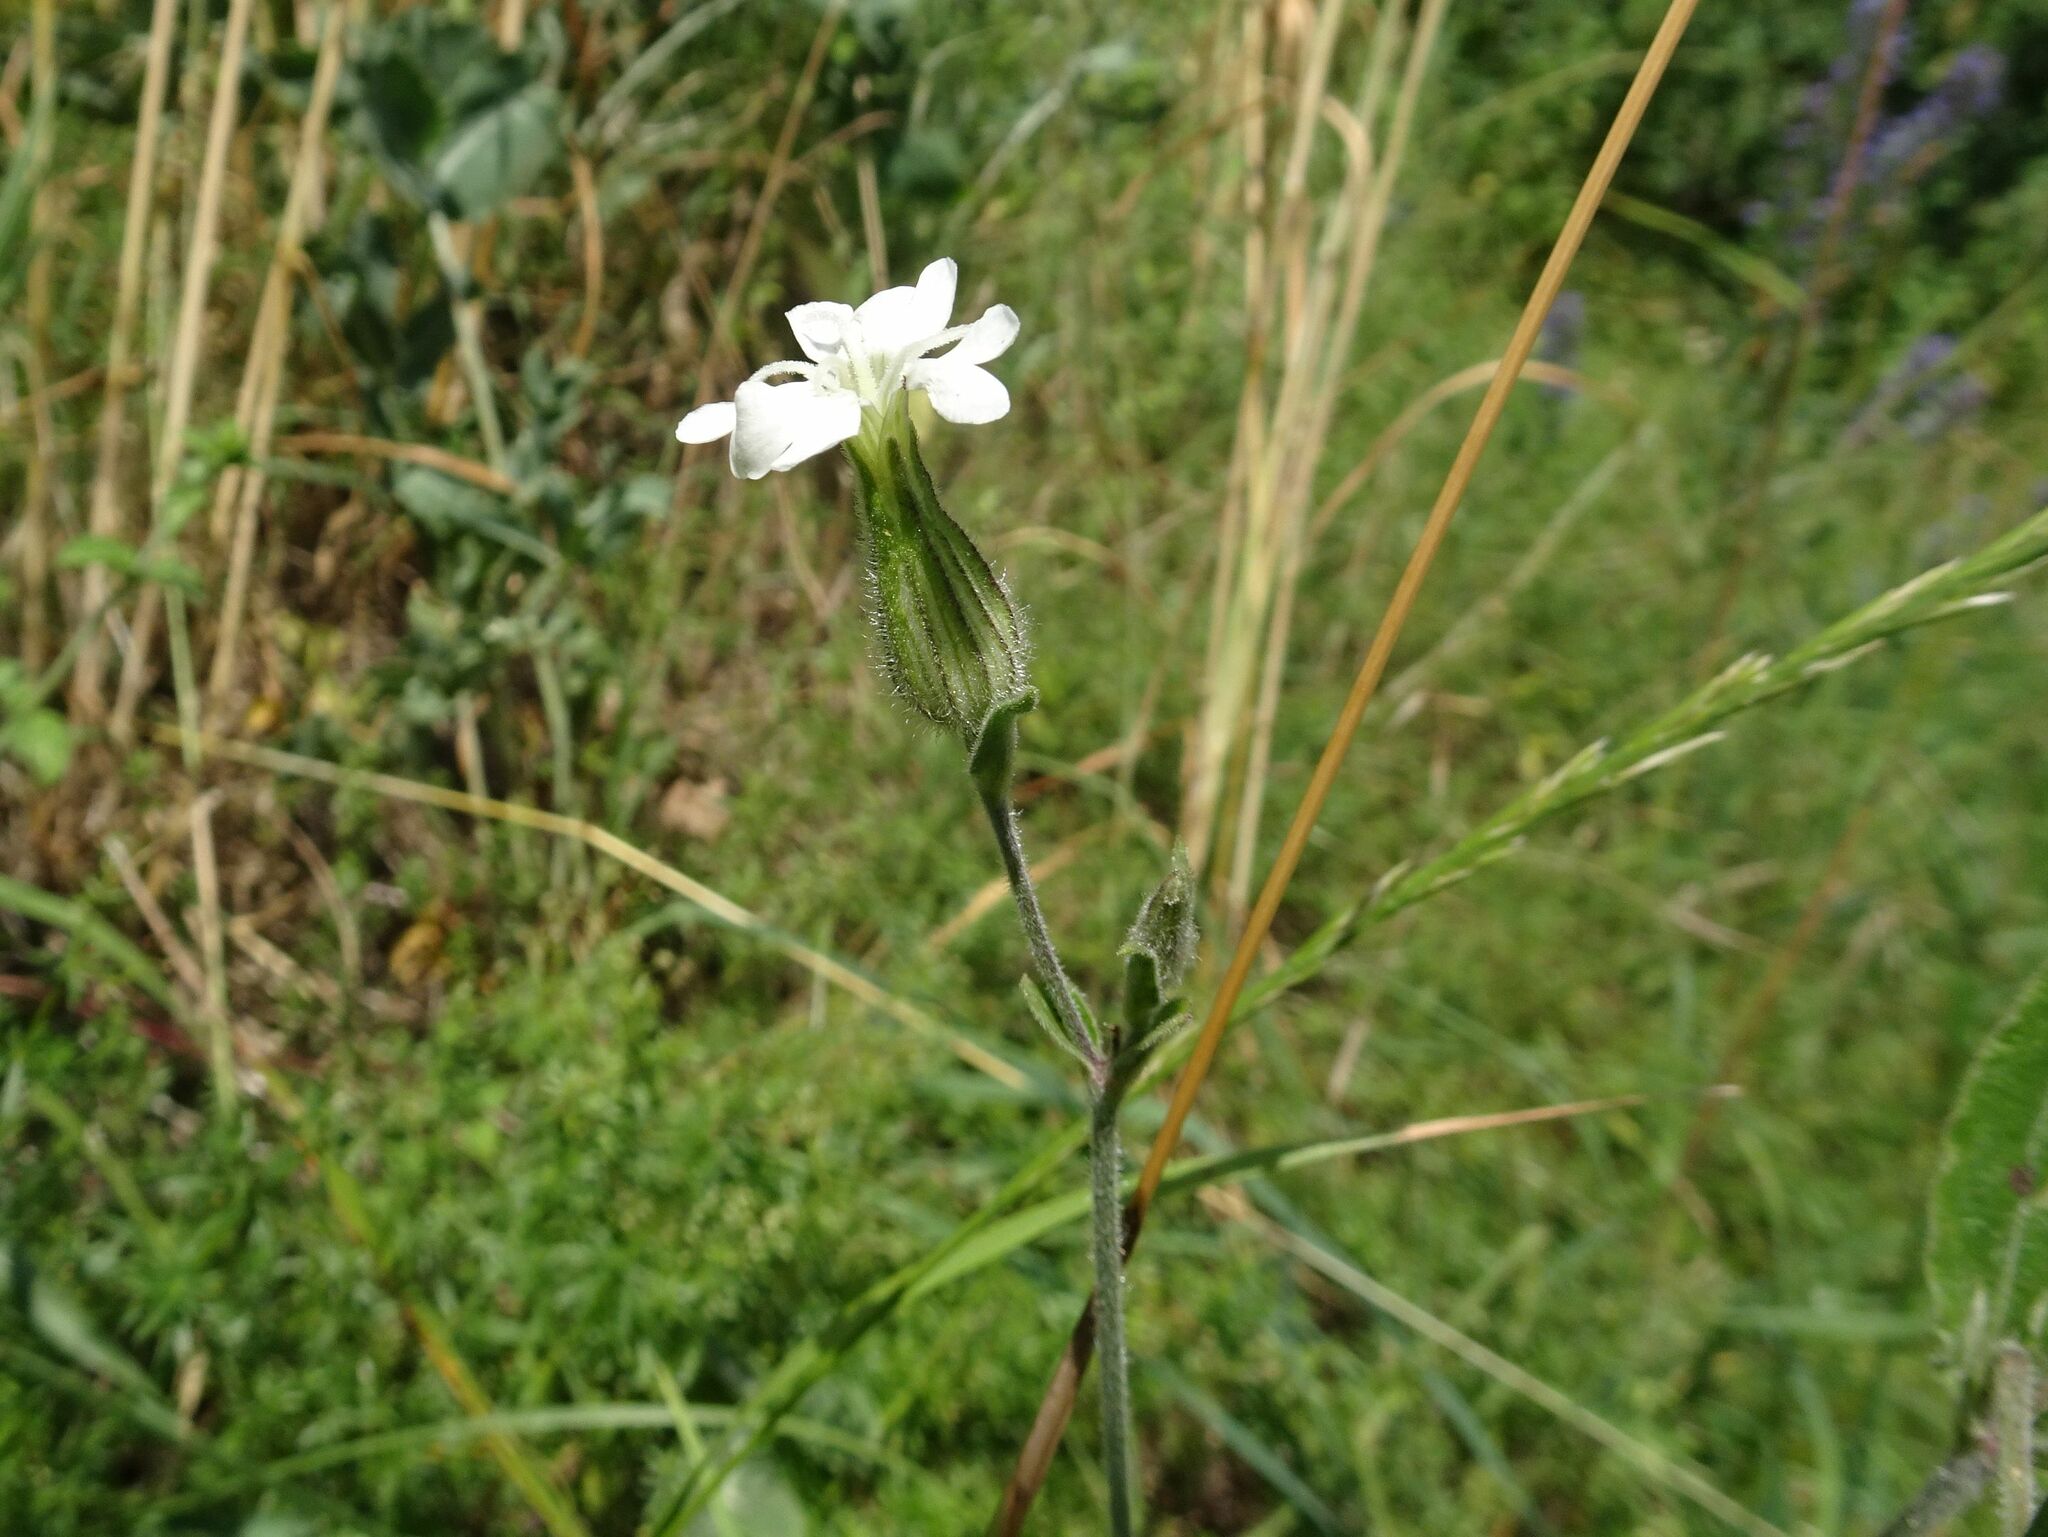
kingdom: Plantae
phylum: Tracheophyta
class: Magnoliopsida
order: Caryophyllales
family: Caryophyllaceae
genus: Silene
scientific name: Silene latifolia
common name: White campion
